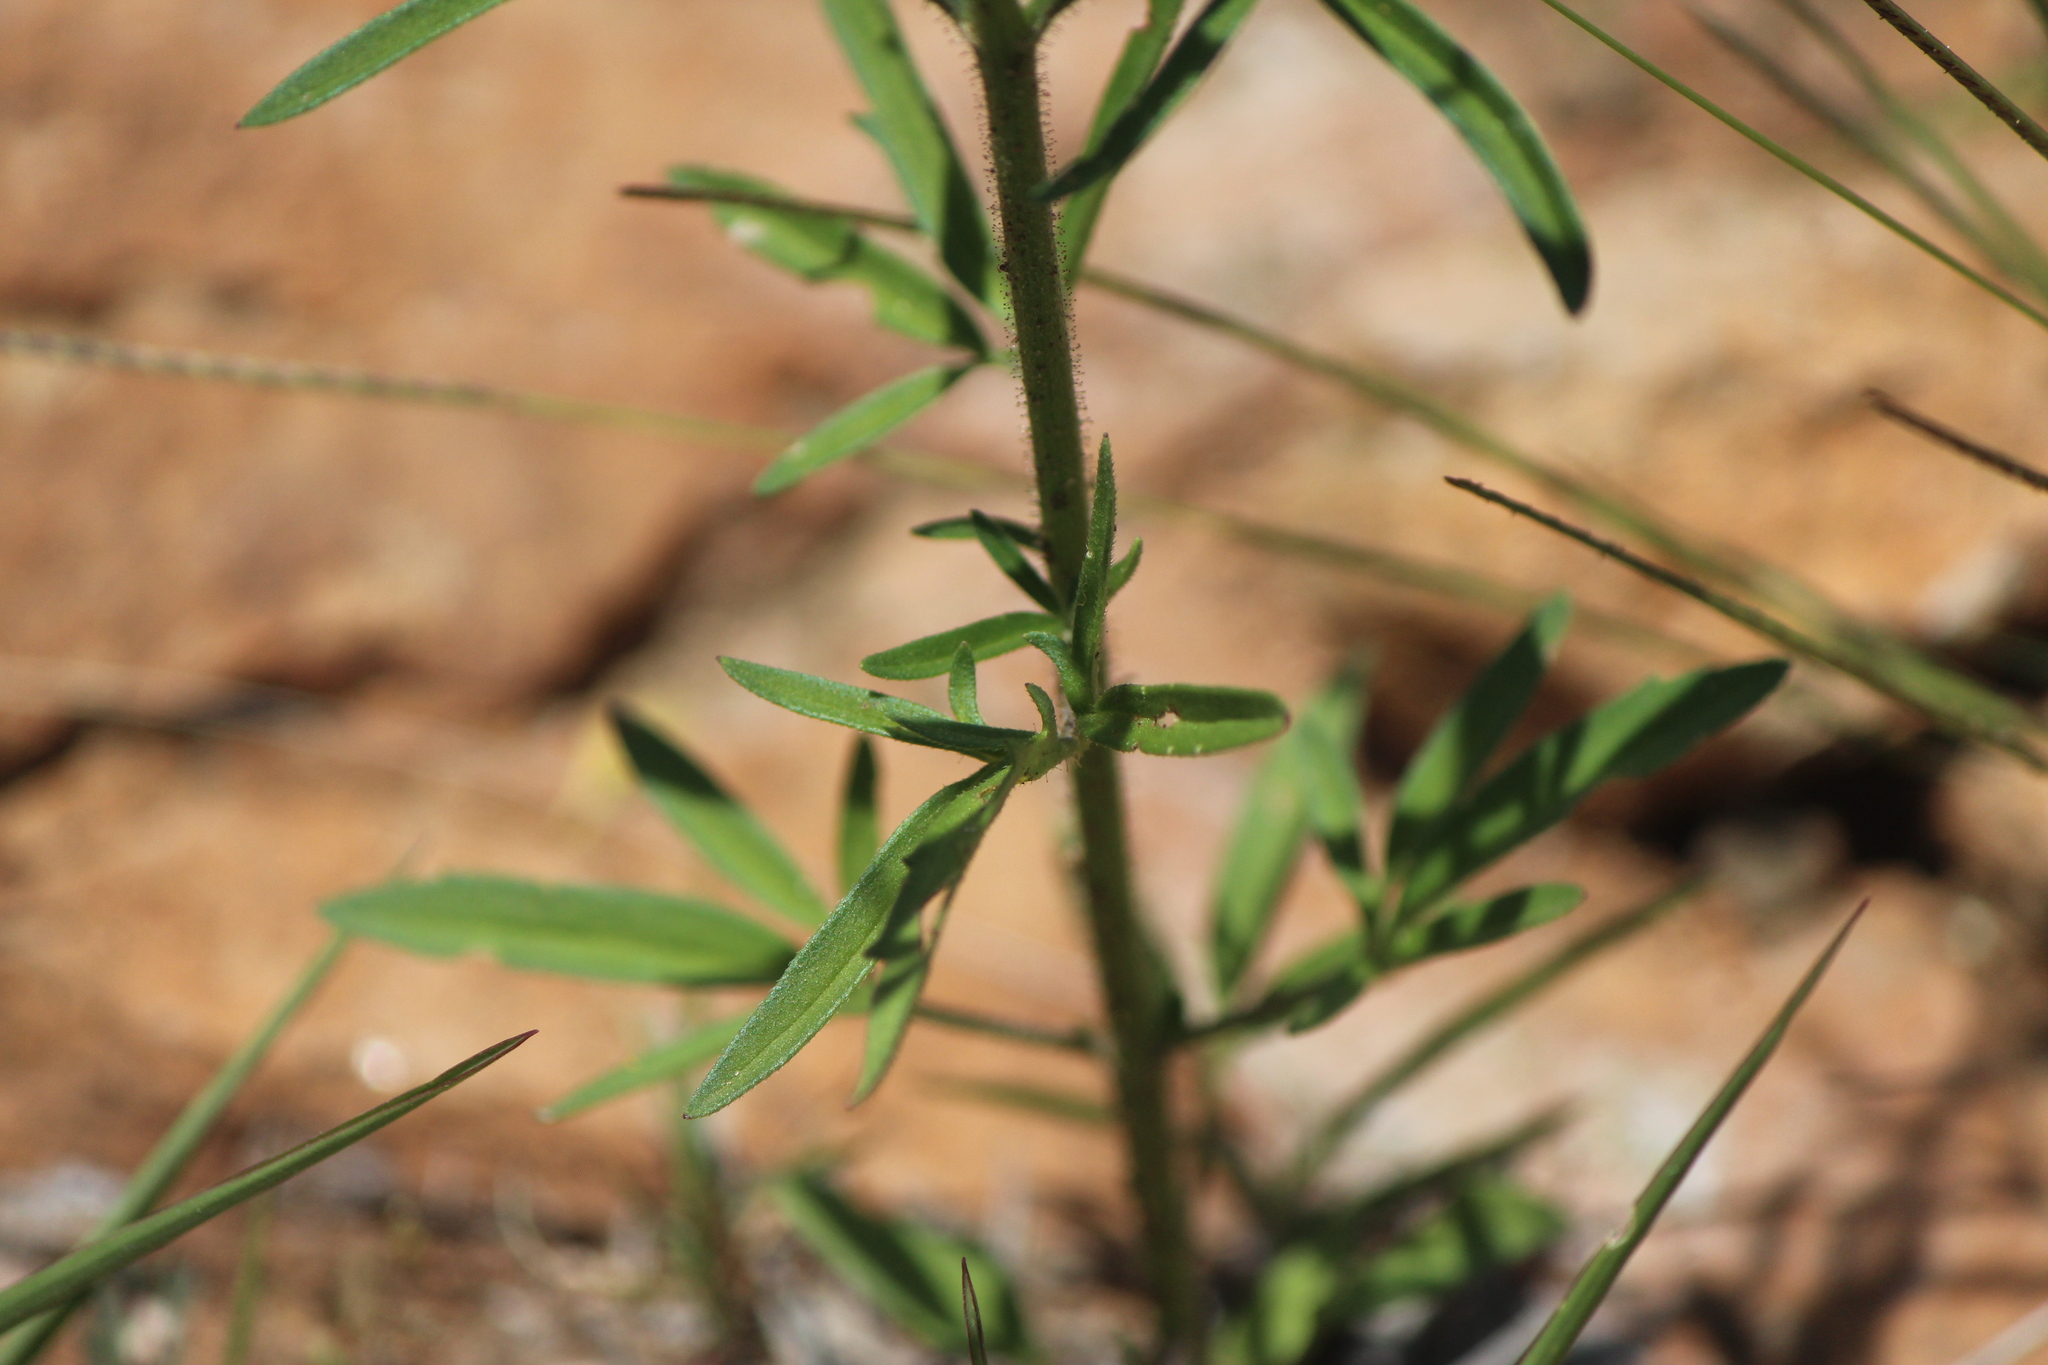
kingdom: Plantae
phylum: Tracheophyta
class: Magnoliopsida
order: Asterales
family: Asteraceae
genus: Florestina
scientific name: Florestina pedata
